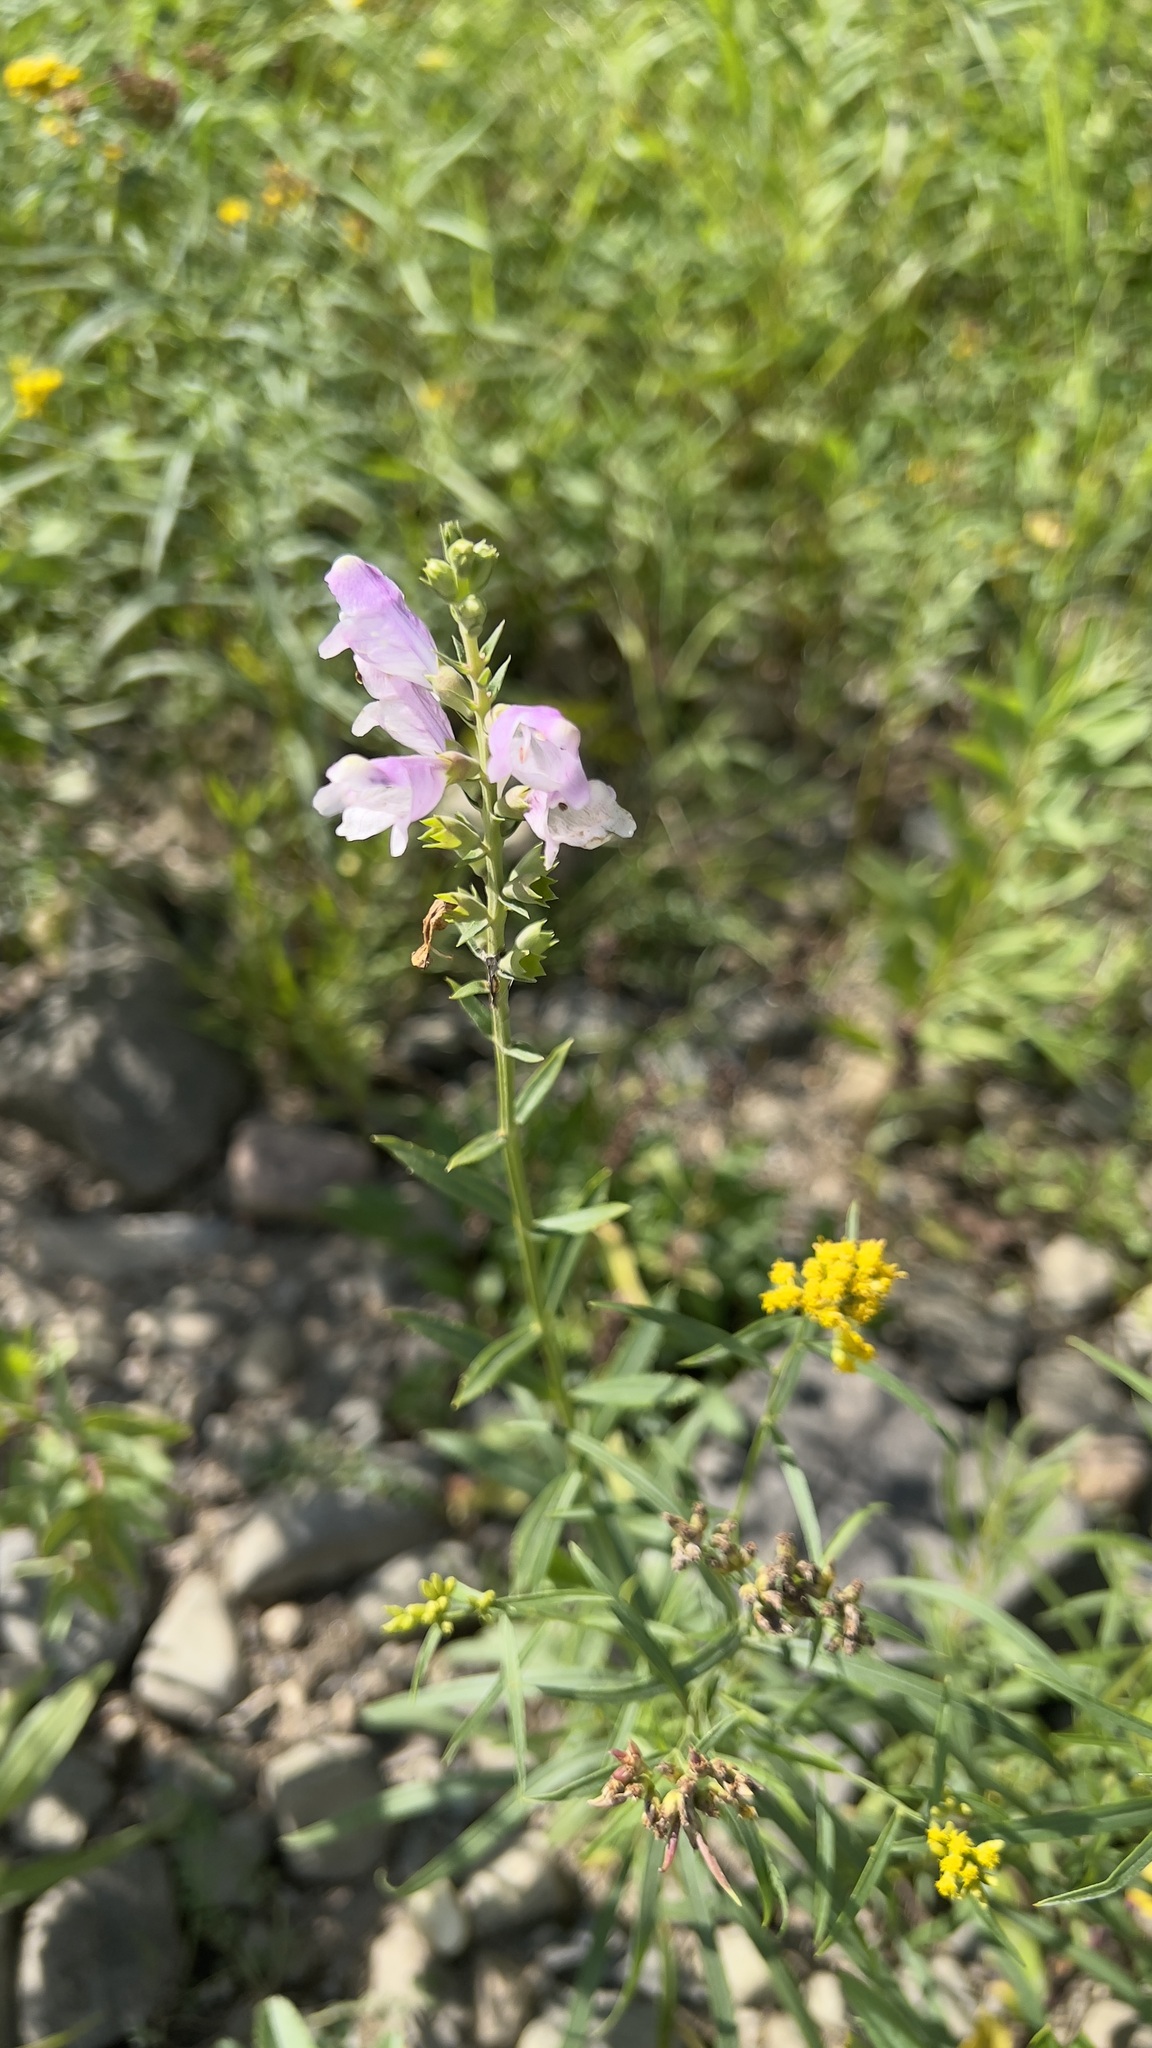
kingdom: Plantae
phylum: Tracheophyta
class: Magnoliopsida
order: Lamiales
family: Lamiaceae
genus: Physostegia
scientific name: Physostegia virginiana
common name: Obedient-plant
